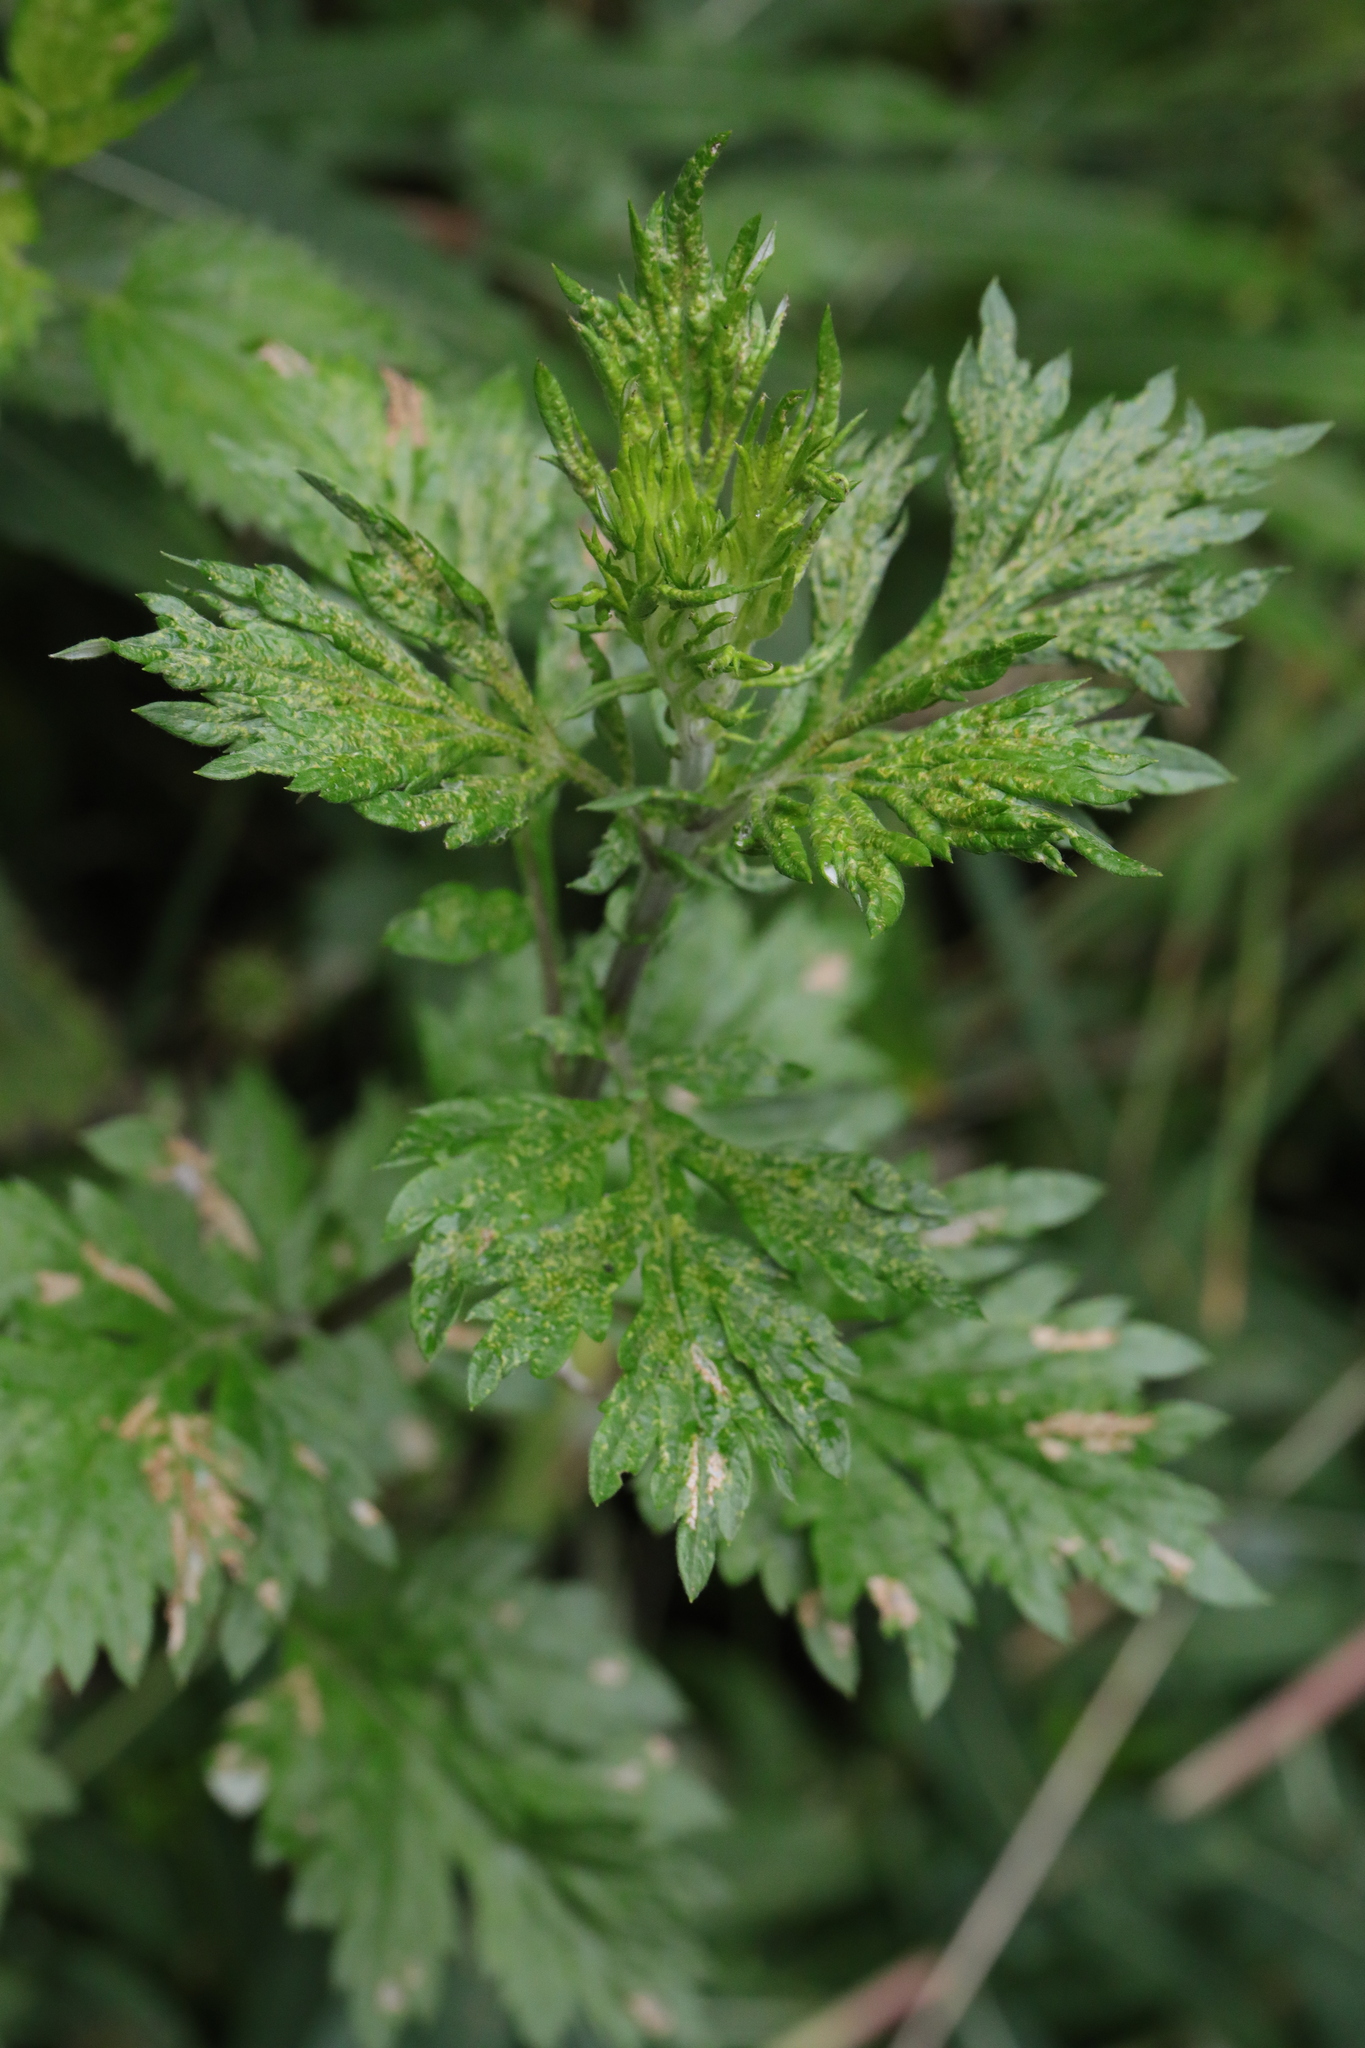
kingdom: Plantae
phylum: Tracheophyta
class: Magnoliopsida
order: Asterales
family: Asteraceae
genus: Artemisia
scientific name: Artemisia vulgaris
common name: Mugwort
